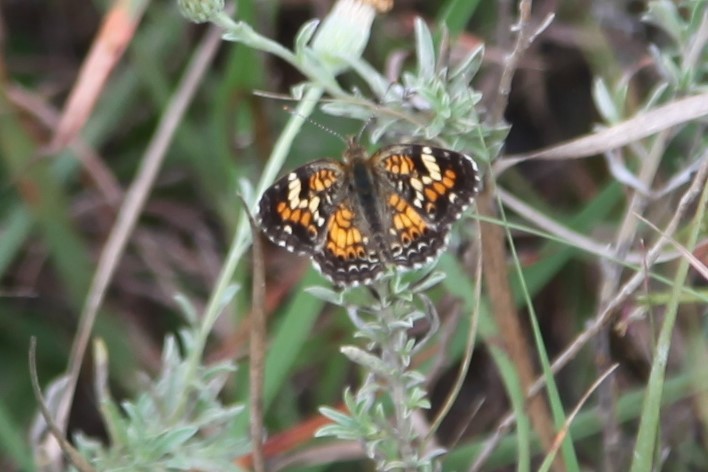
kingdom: Animalia
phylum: Arthropoda
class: Insecta
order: Lepidoptera
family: Nymphalidae
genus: Phyciodes
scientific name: Phyciodes phaon
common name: Phaon crescent
